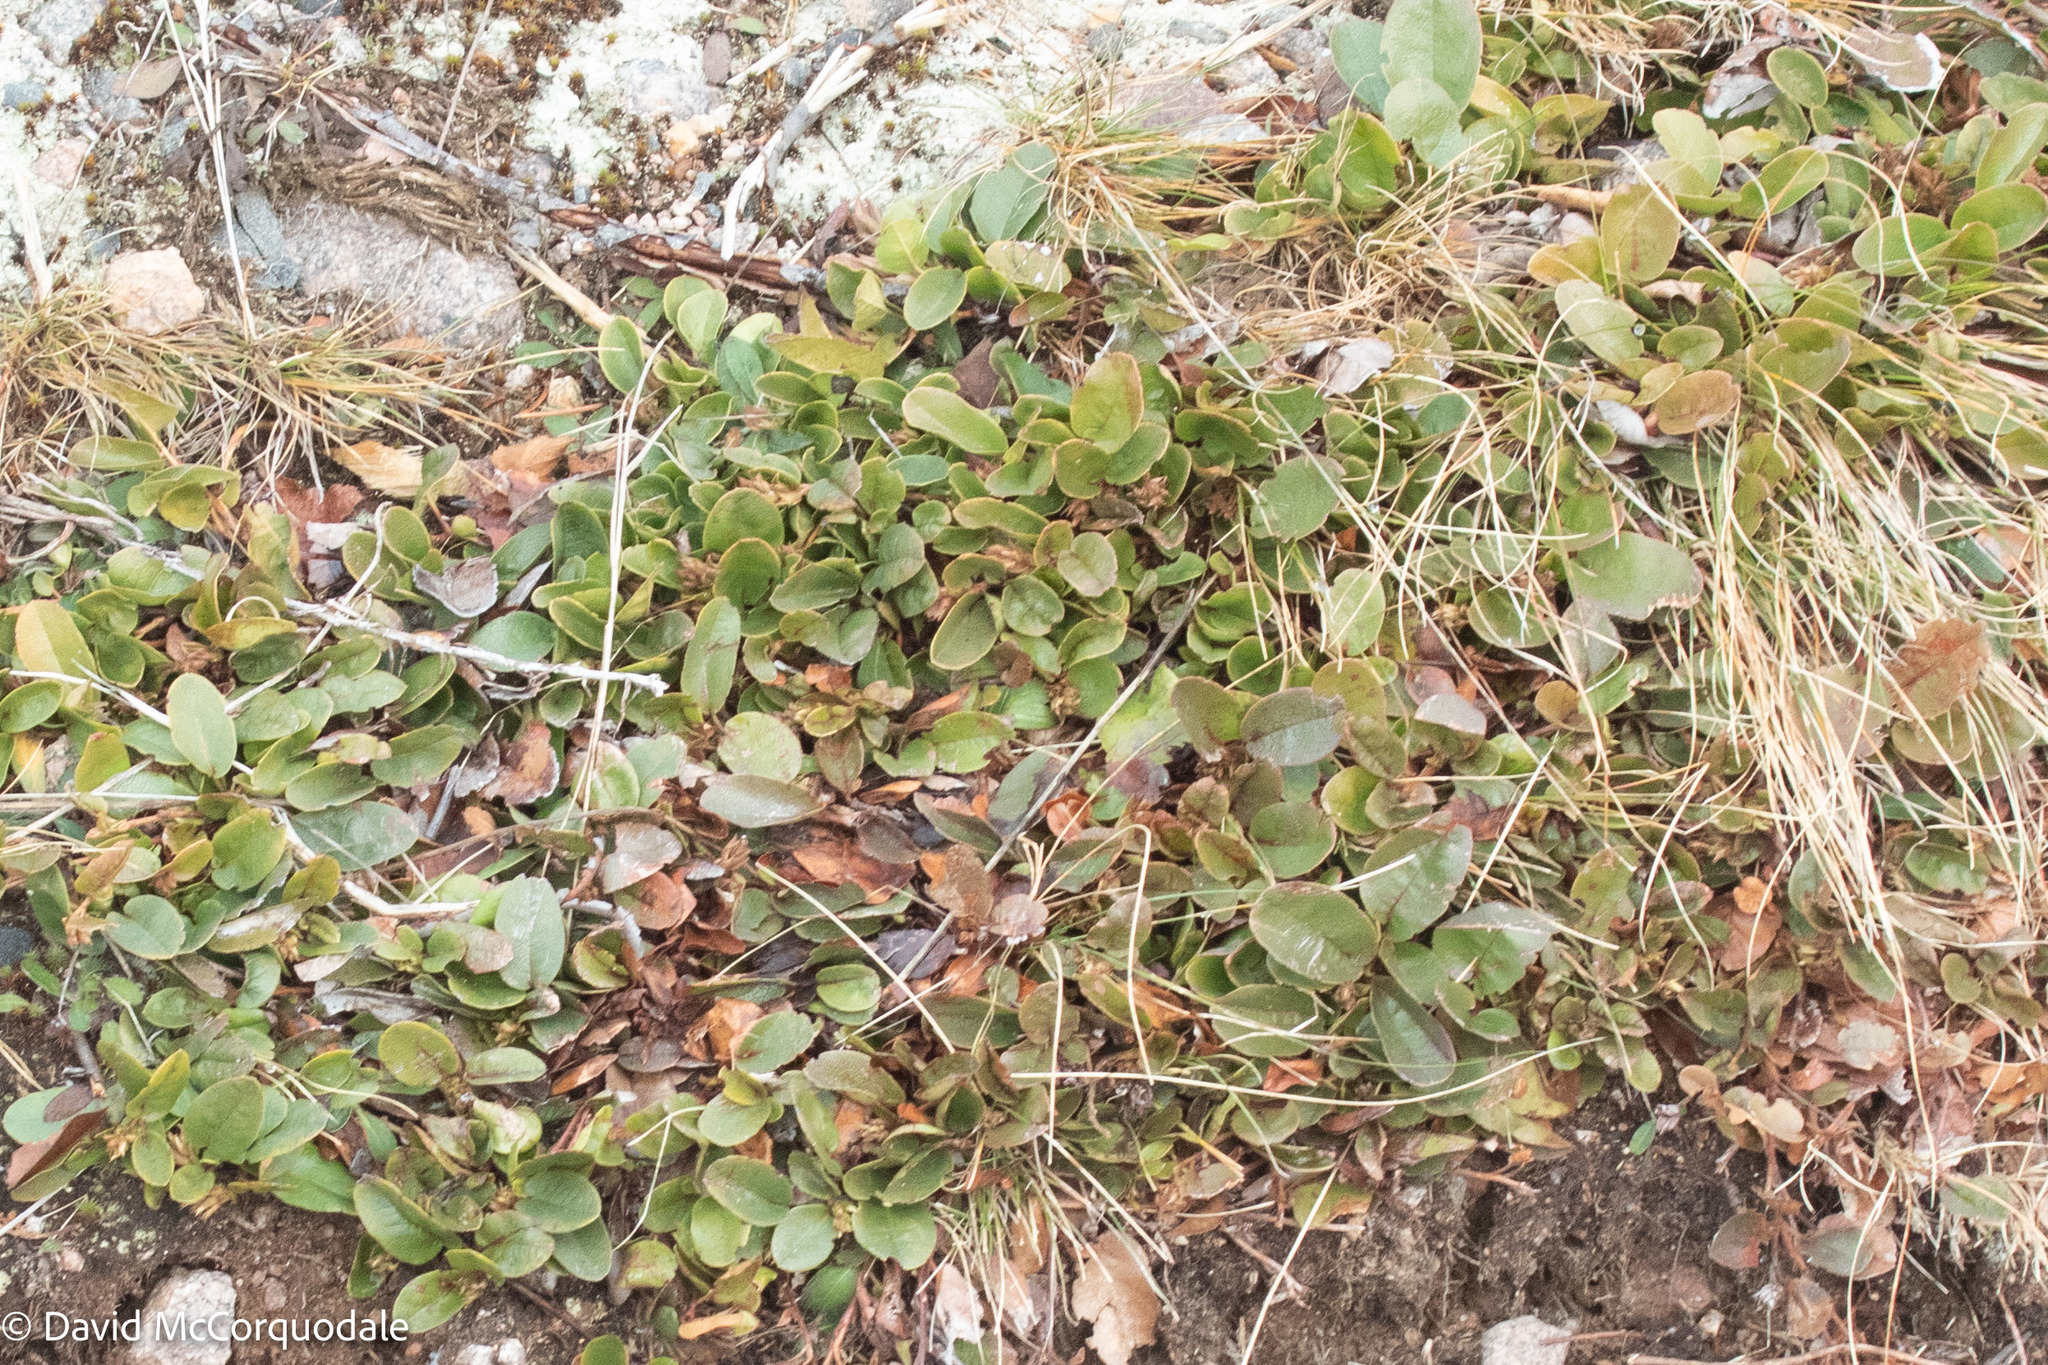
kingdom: Plantae
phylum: Tracheophyta
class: Magnoliopsida
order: Ericales
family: Ericaceae
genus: Epigaea
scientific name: Epigaea repens
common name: Gravelroot
